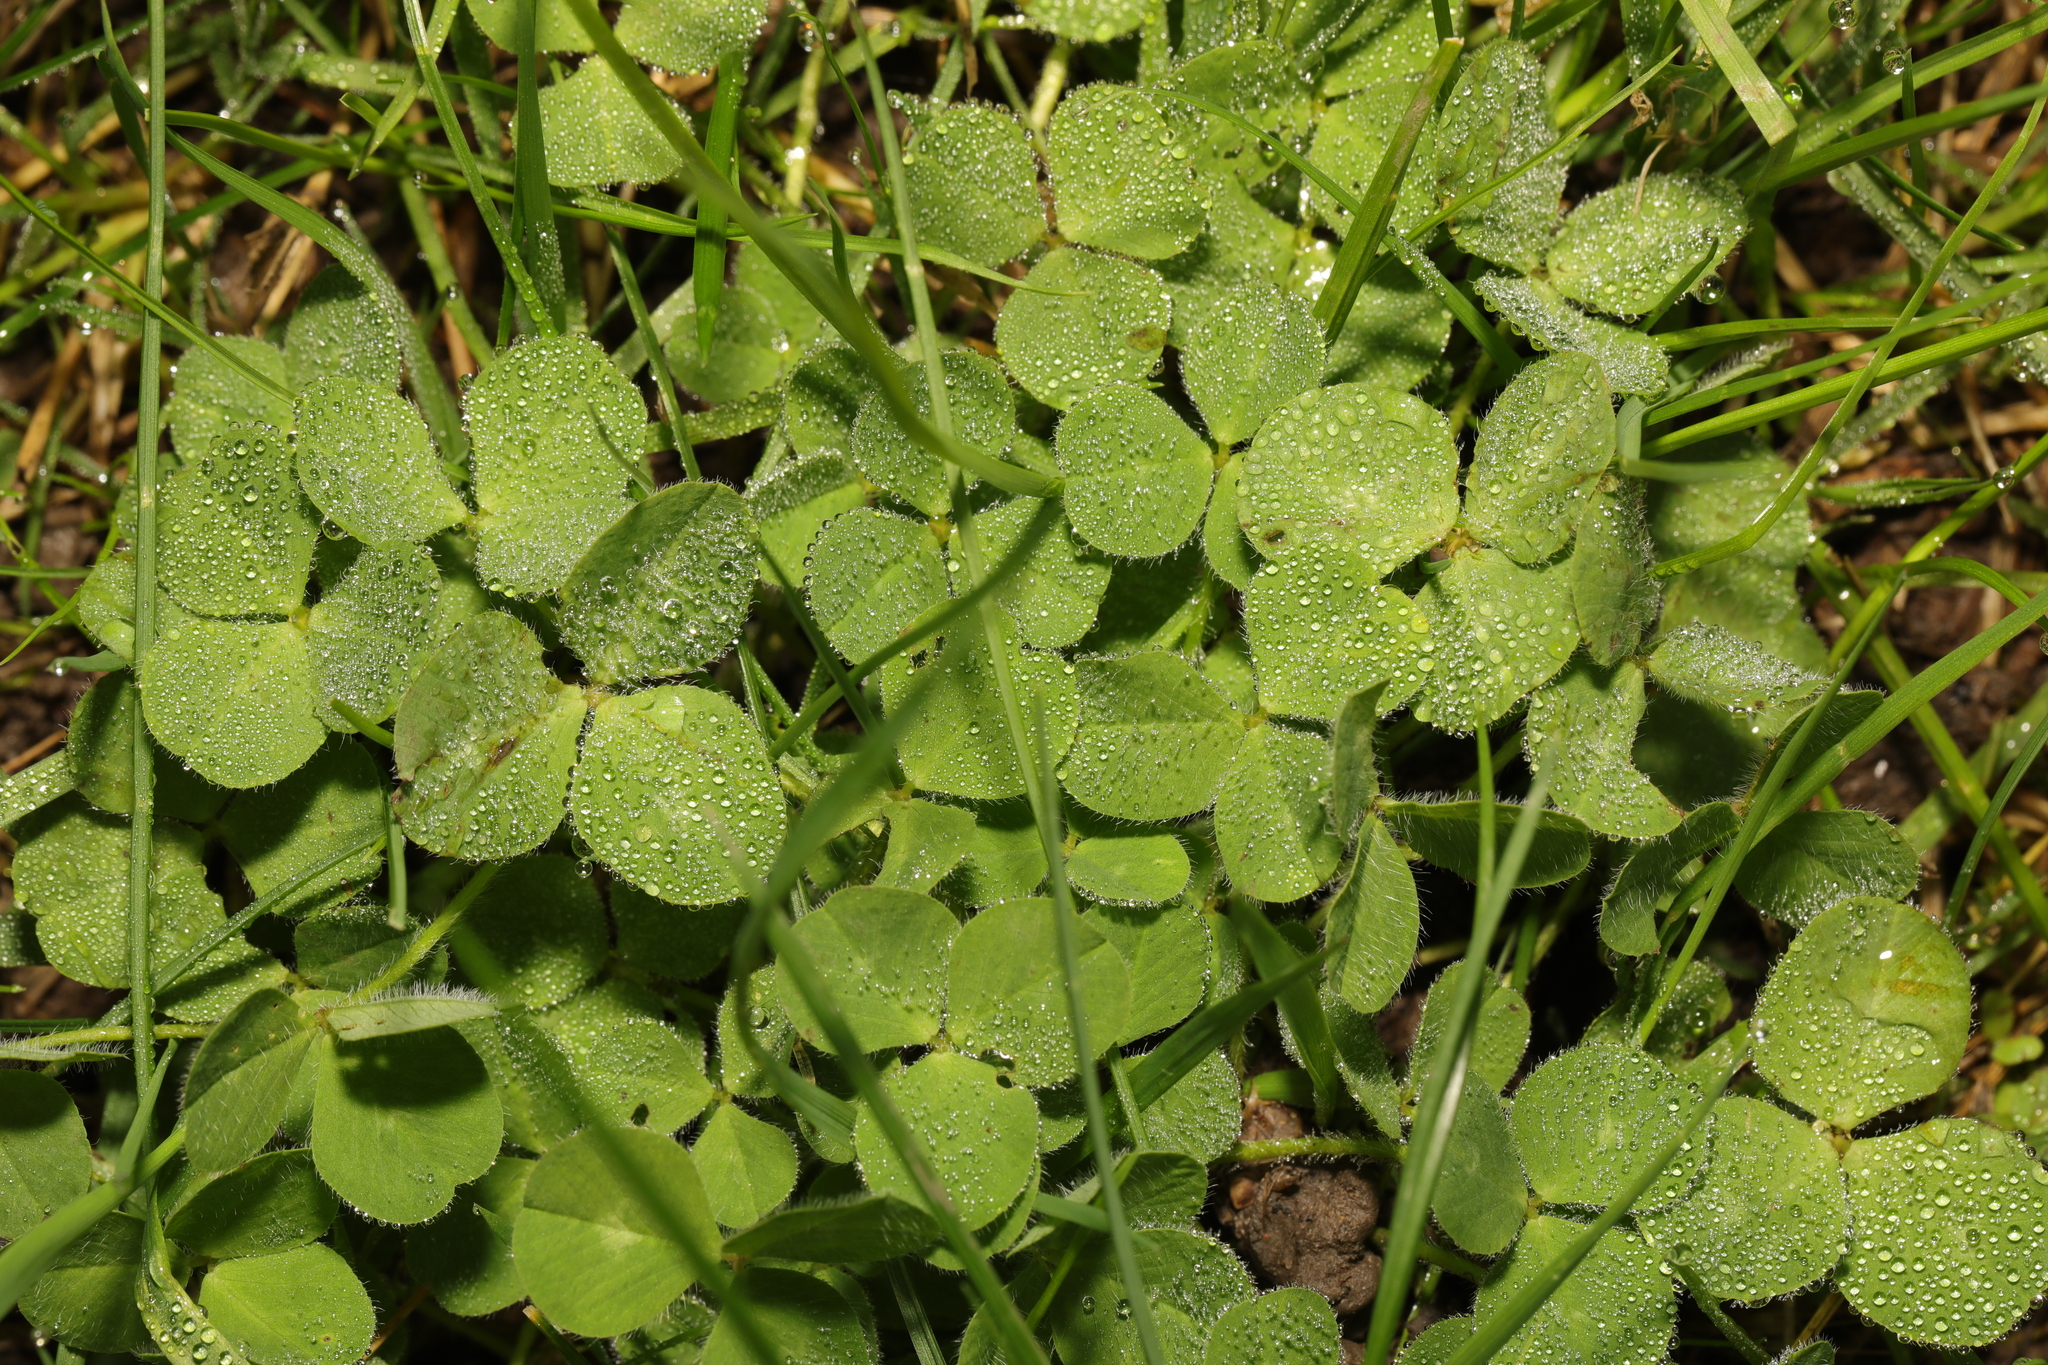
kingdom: Plantae
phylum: Tracheophyta
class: Magnoliopsida
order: Fabales
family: Fabaceae
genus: Trifolium
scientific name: Trifolium repens
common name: White clover
